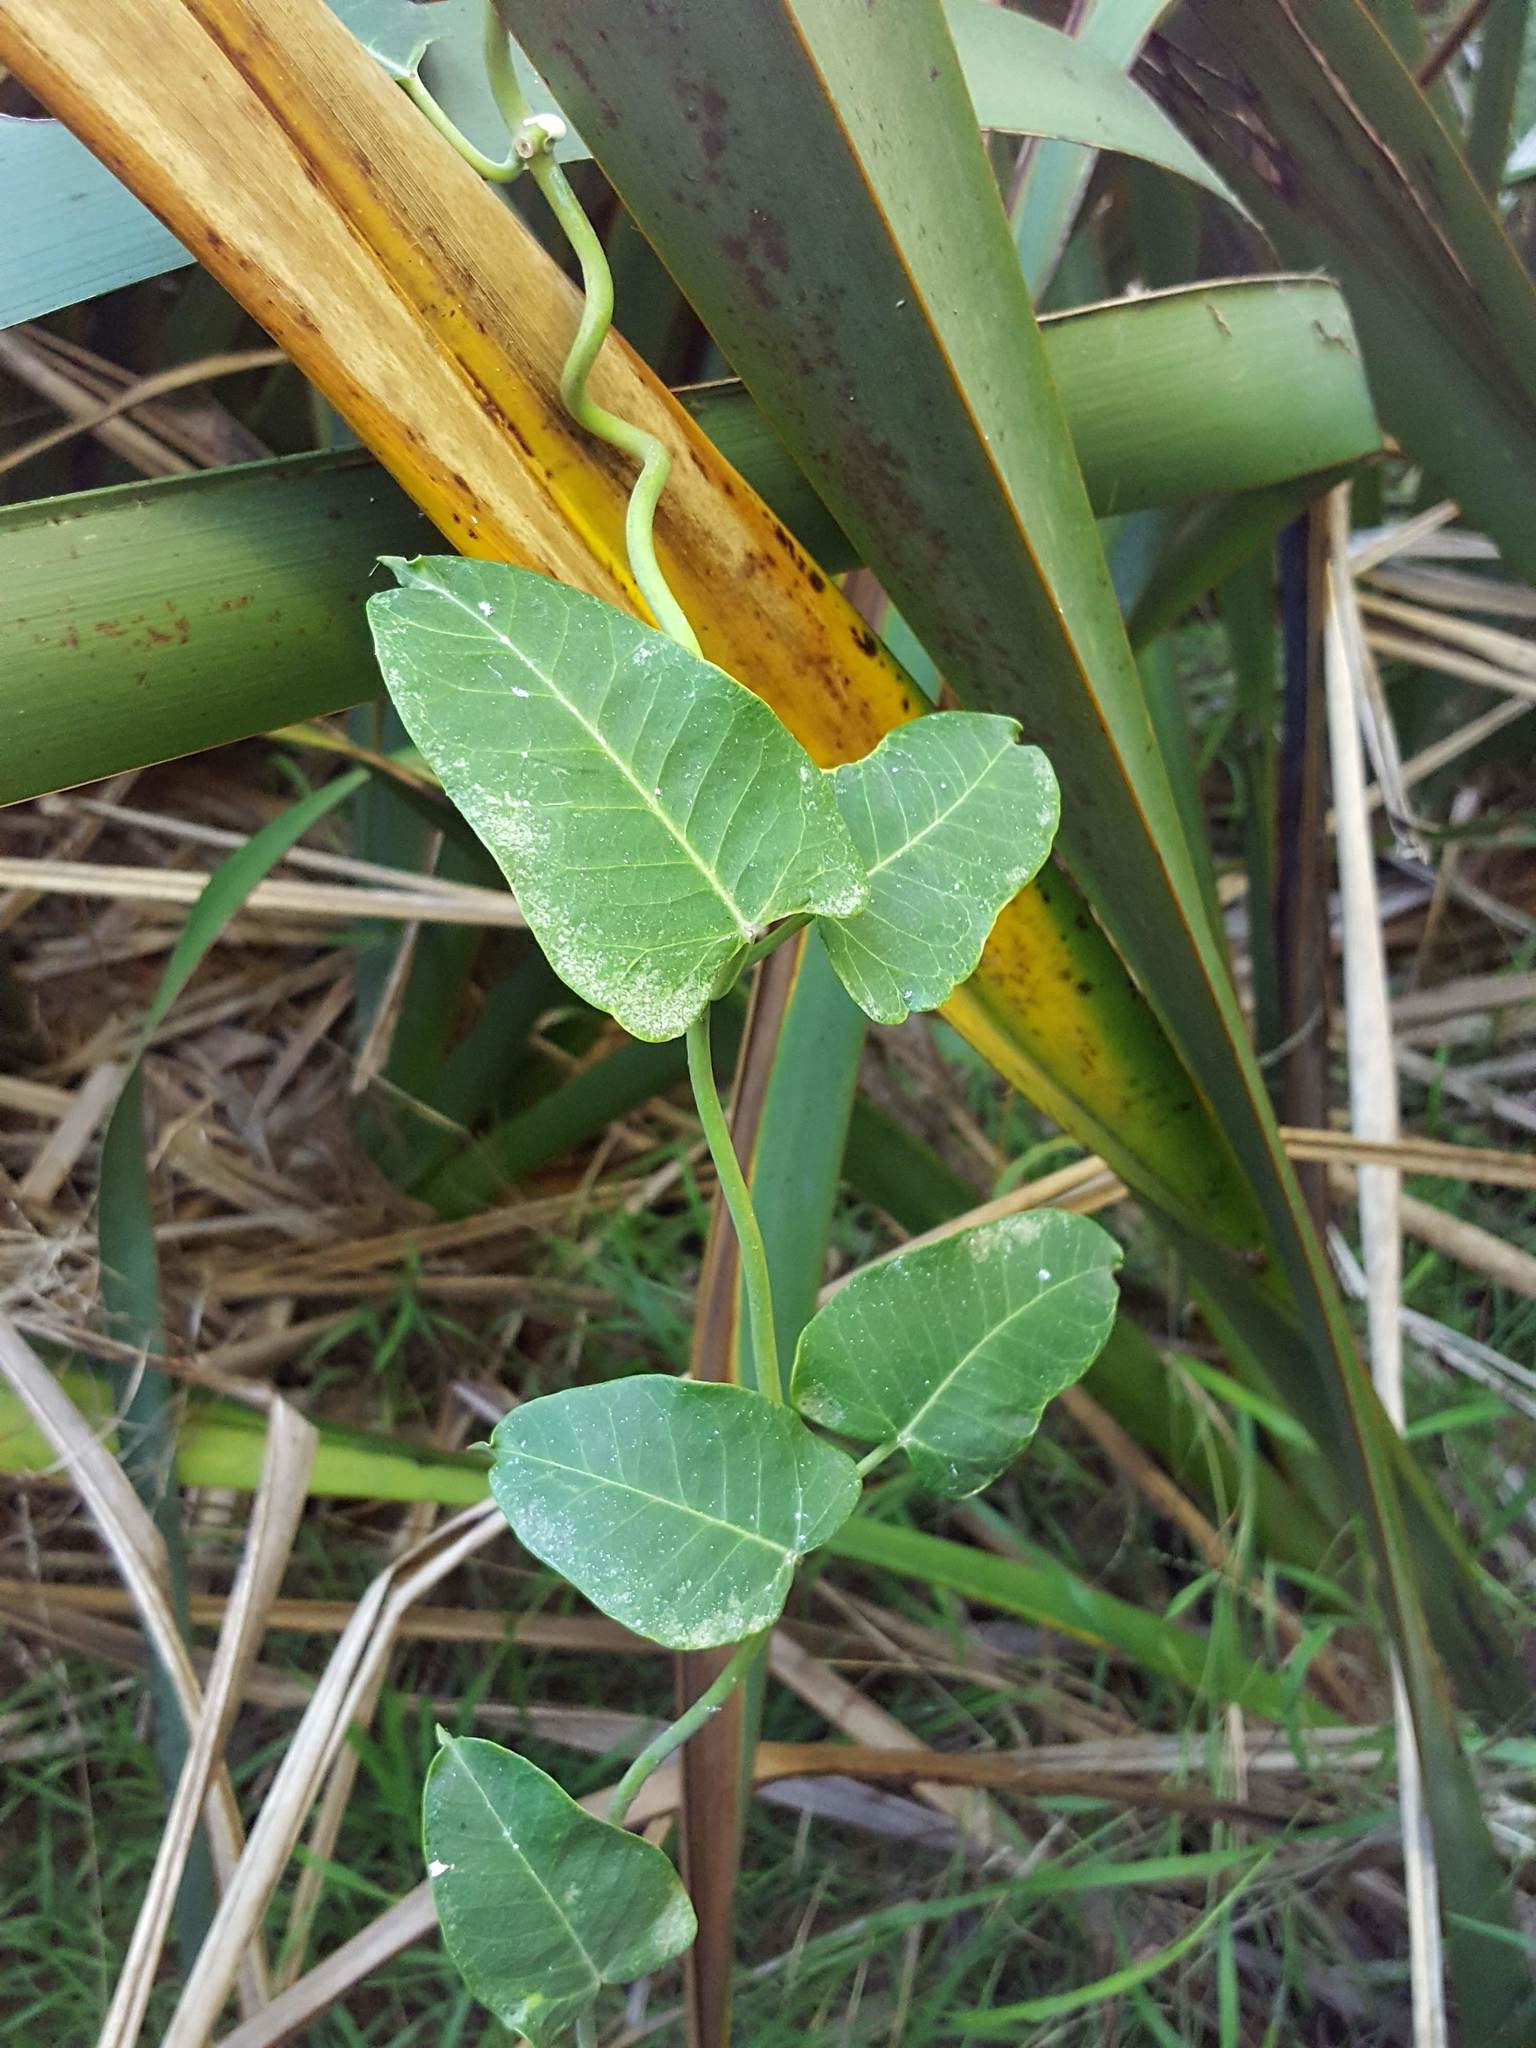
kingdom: Plantae
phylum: Tracheophyta
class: Magnoliopsida
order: Gentianales
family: Apocynaceae
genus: Araujia
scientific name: Araujia sericifera
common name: White bladderflower
